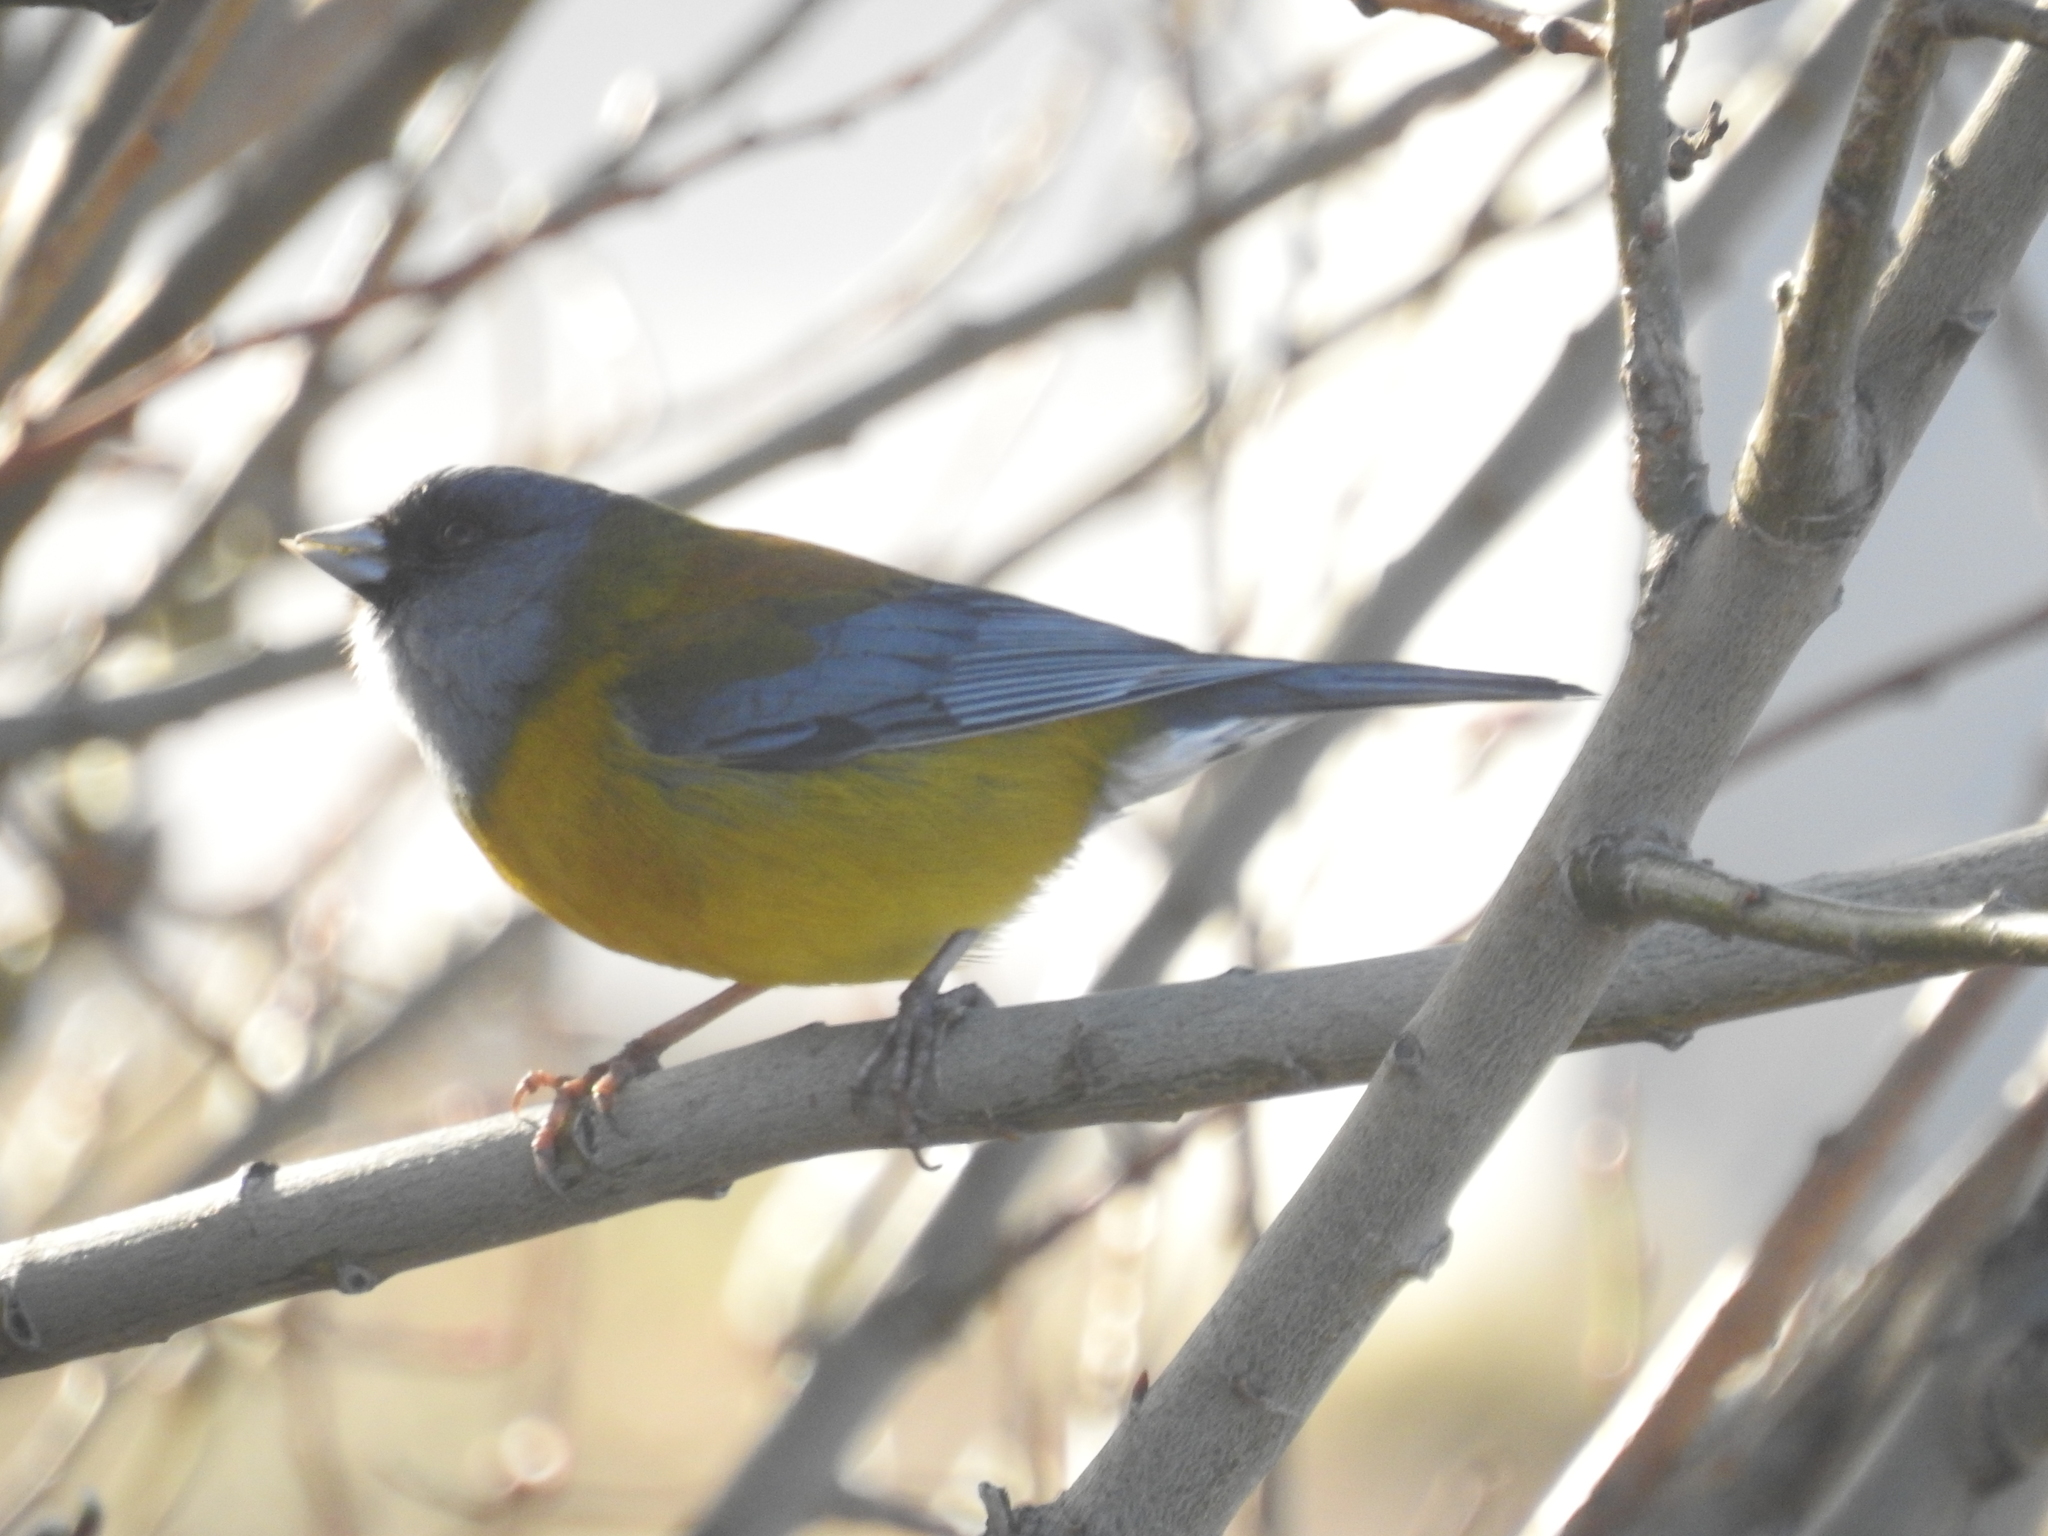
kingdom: Animalia
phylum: Chordata
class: Aves
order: Passeriformes
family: Thraupidae
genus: Phrygilus
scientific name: Phrygilus patagonicus
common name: Patagonian sierra finch
